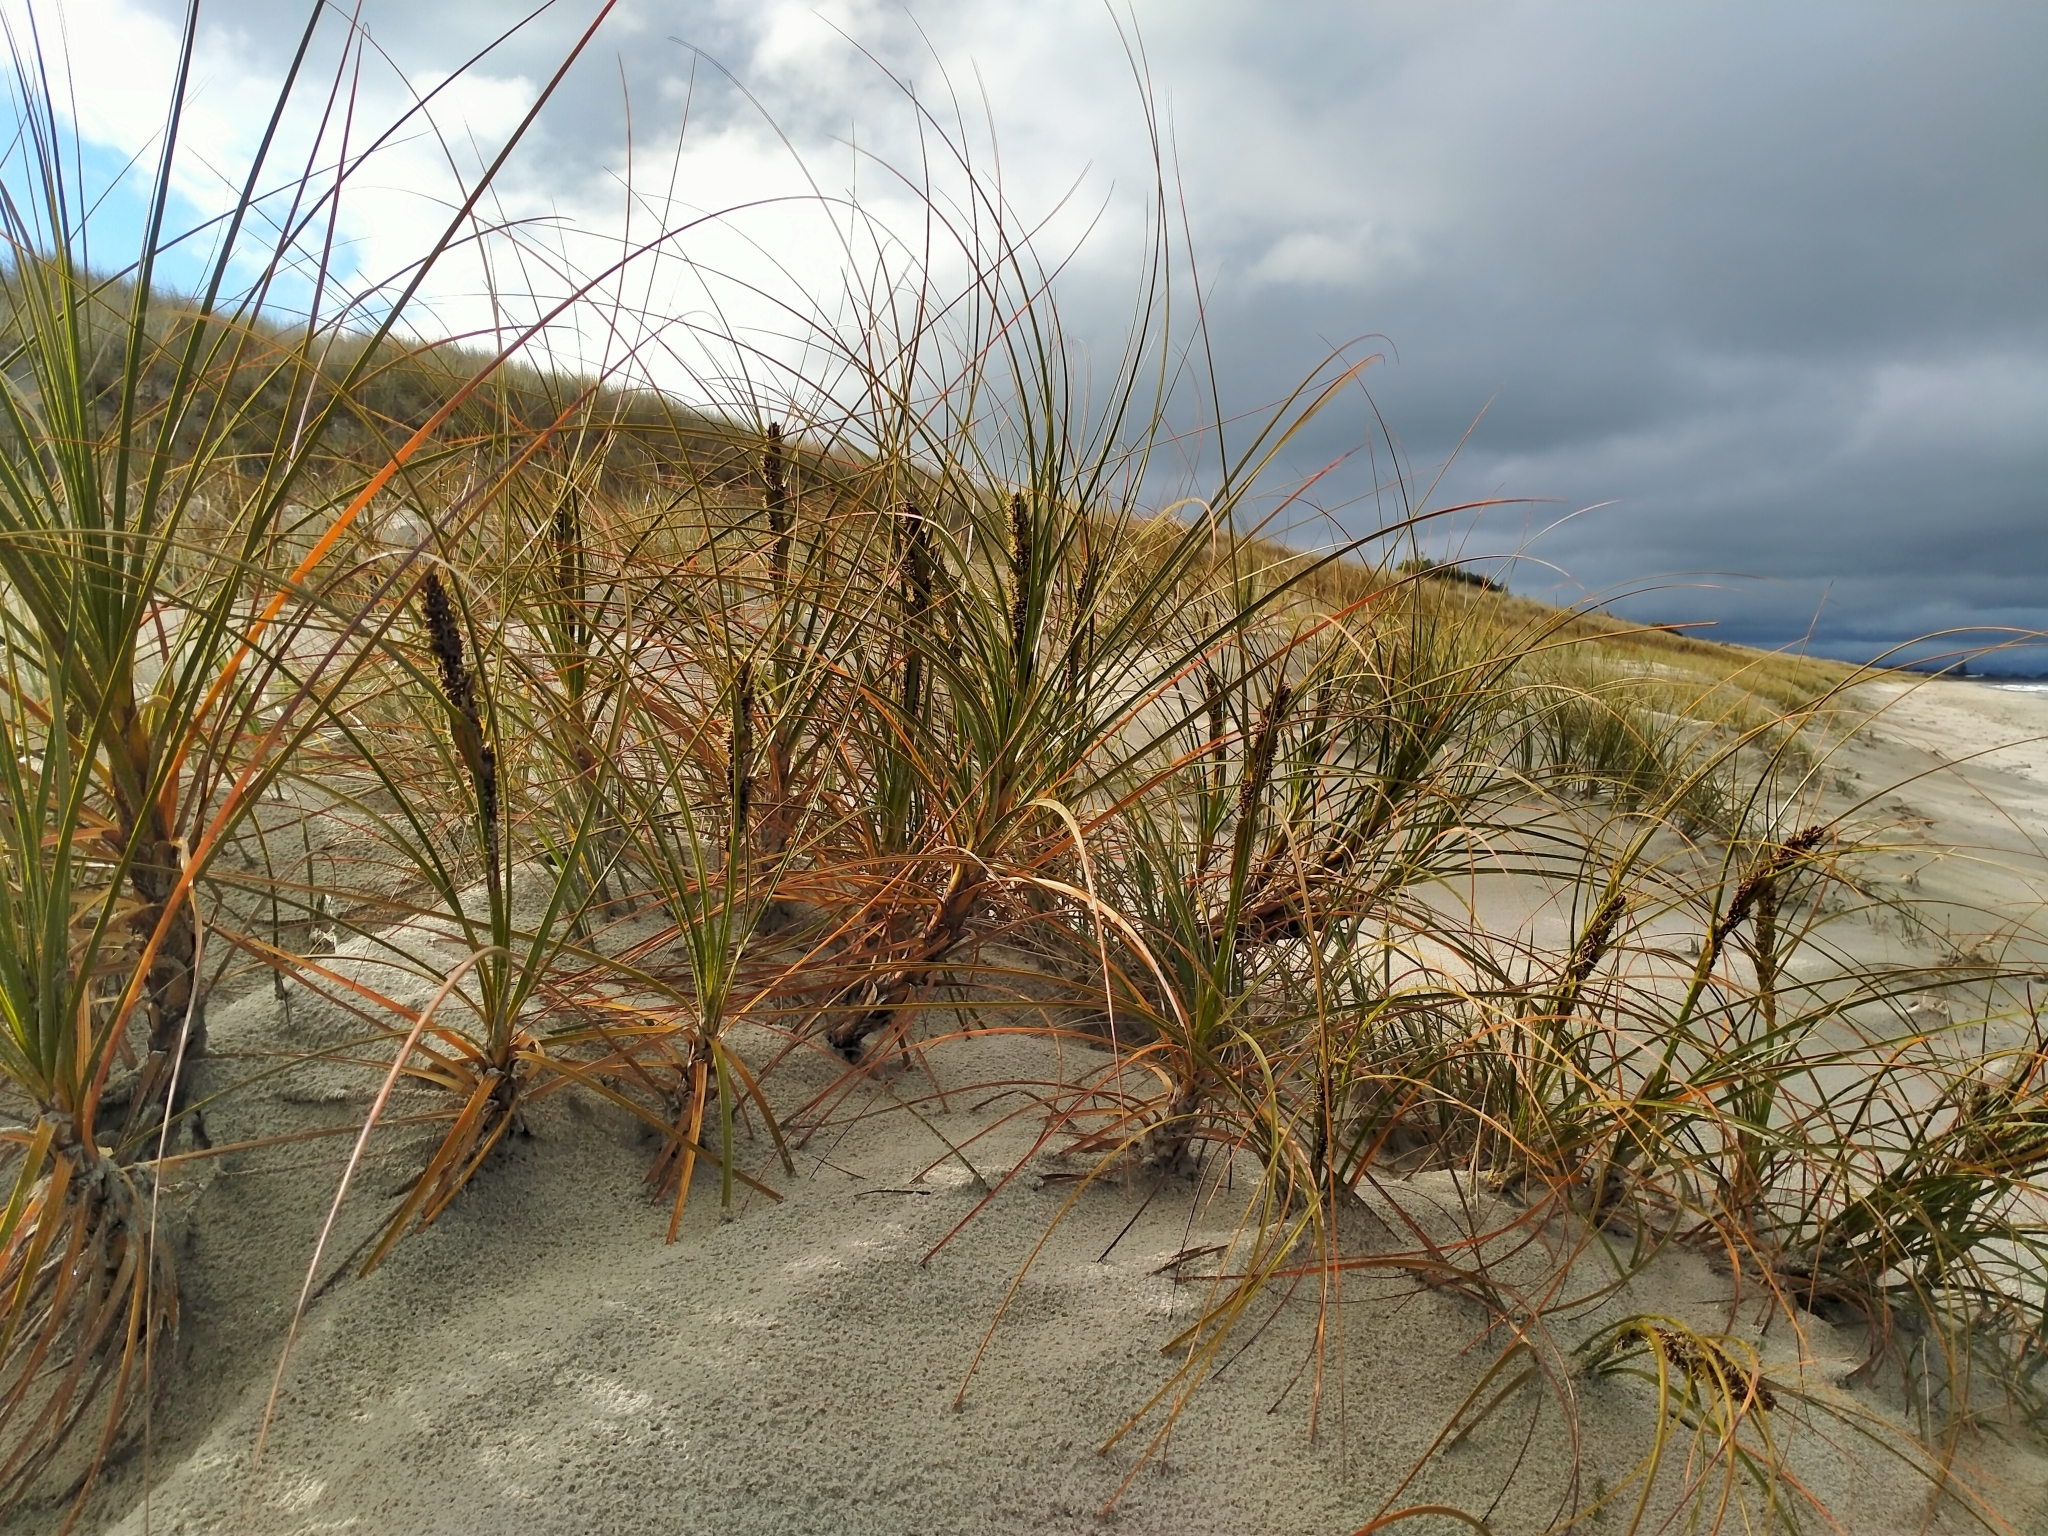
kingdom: Plantae
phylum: Tracheophyta
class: Liliopsida
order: Poales
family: Cyperaceae
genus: Ficinia
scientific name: Ficinia spiralis
